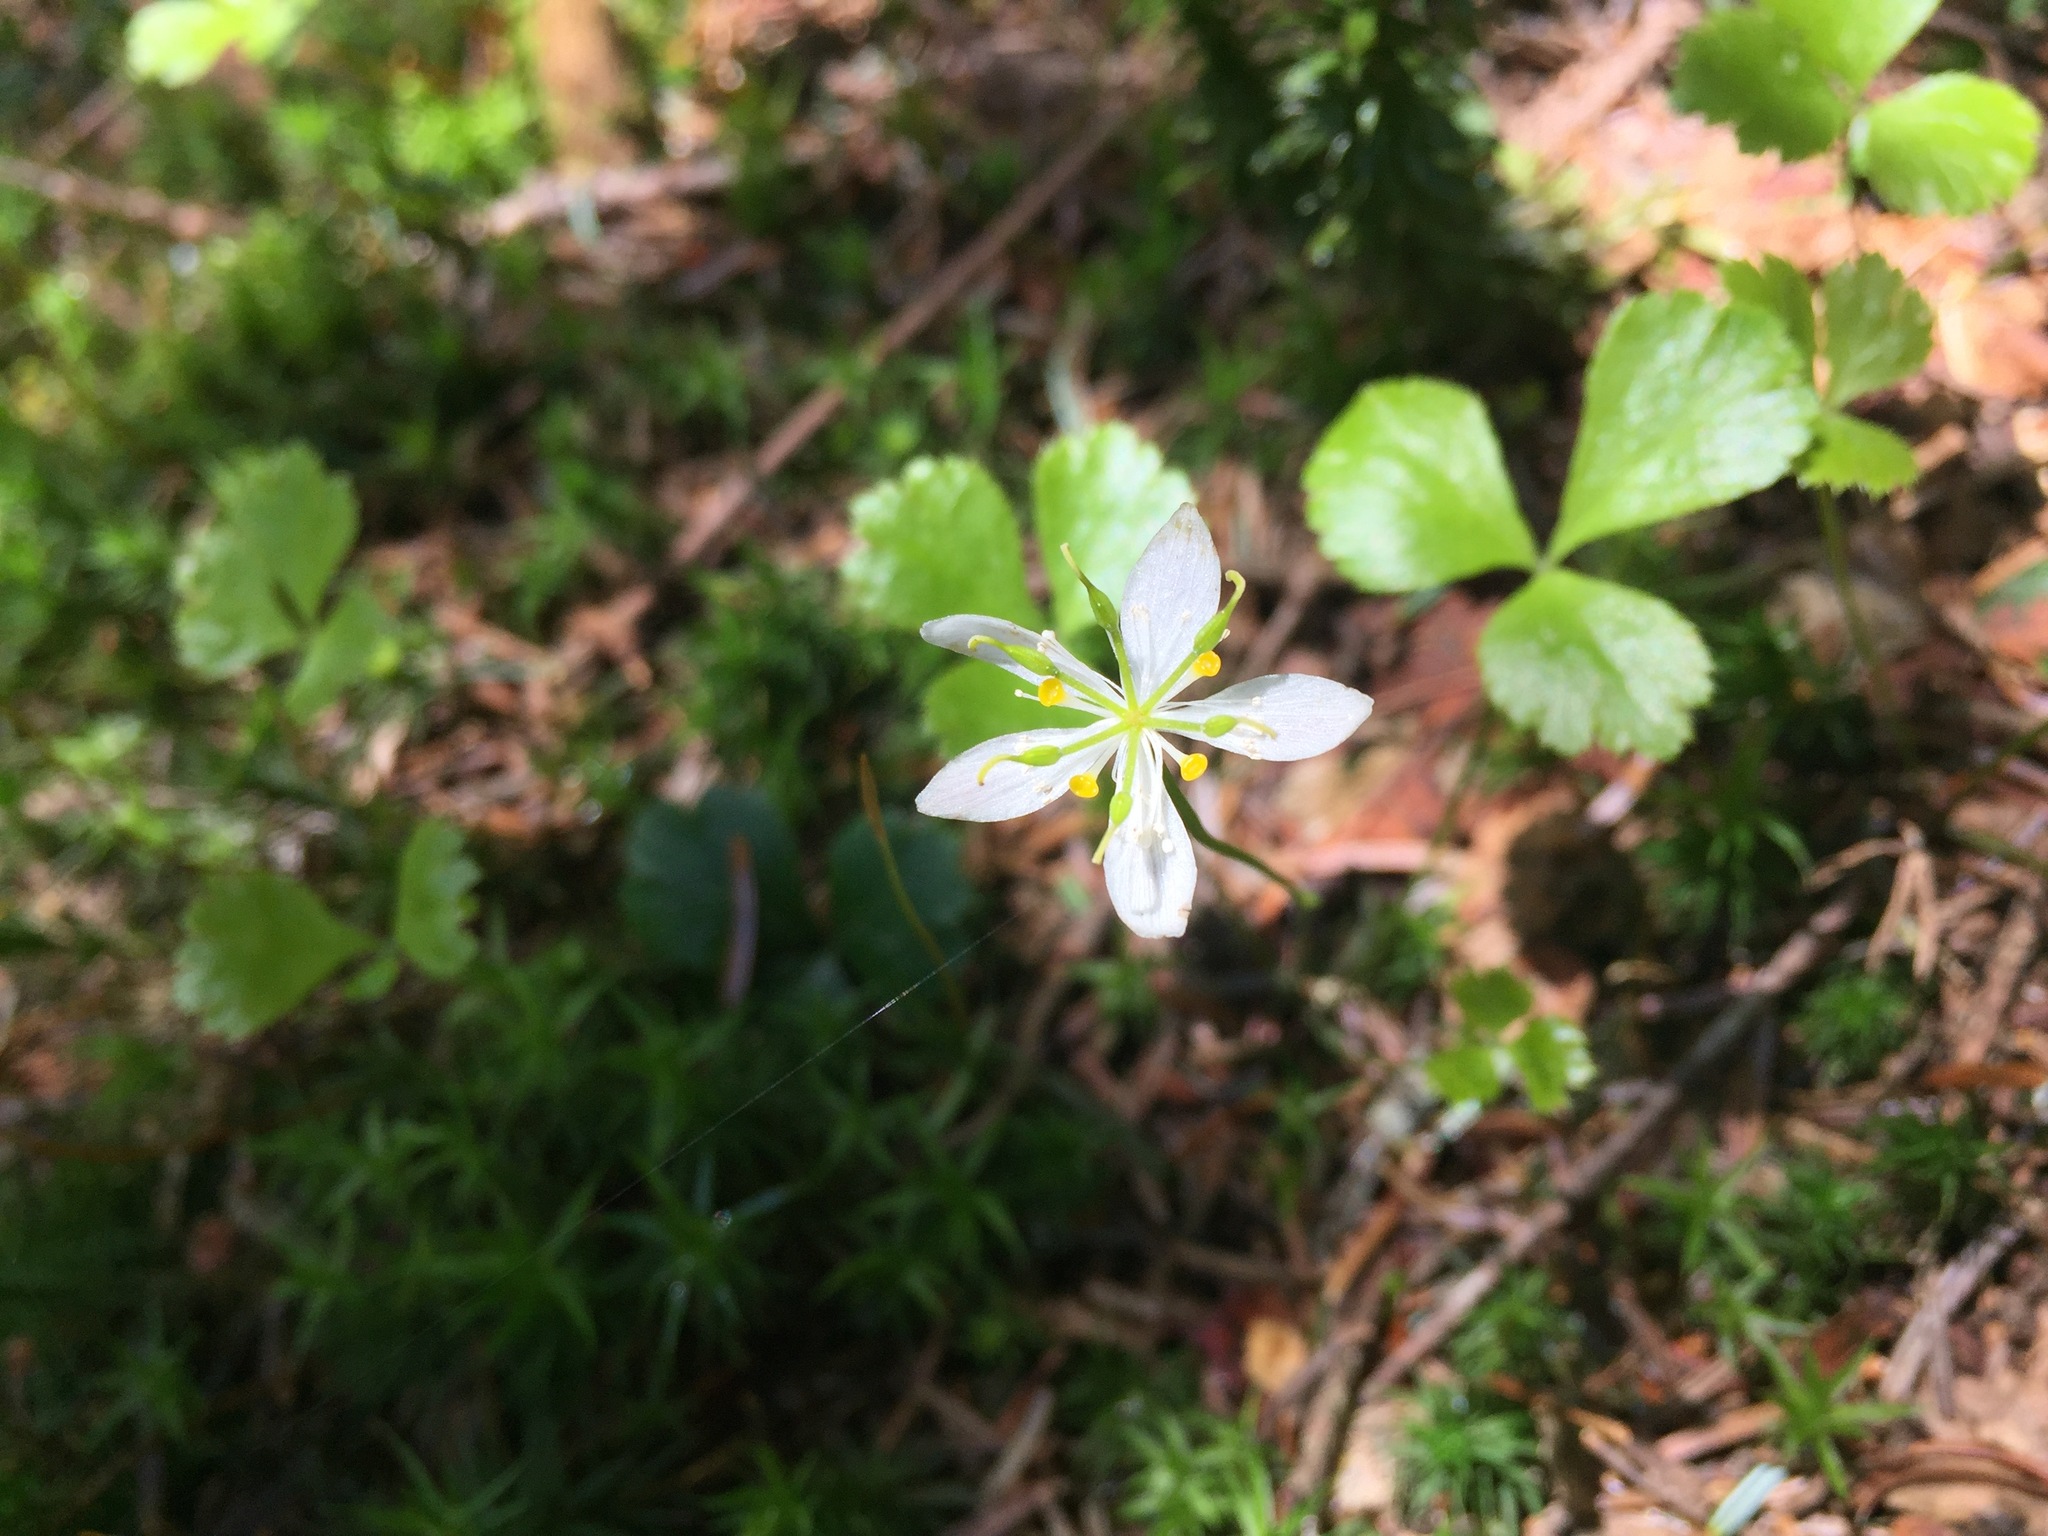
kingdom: Plantae
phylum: Tracheophyta
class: Magnoliopsida
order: Ranunculales
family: Ranunculaceae
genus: Coptis
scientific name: Coptis trifolia
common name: Canker-root
